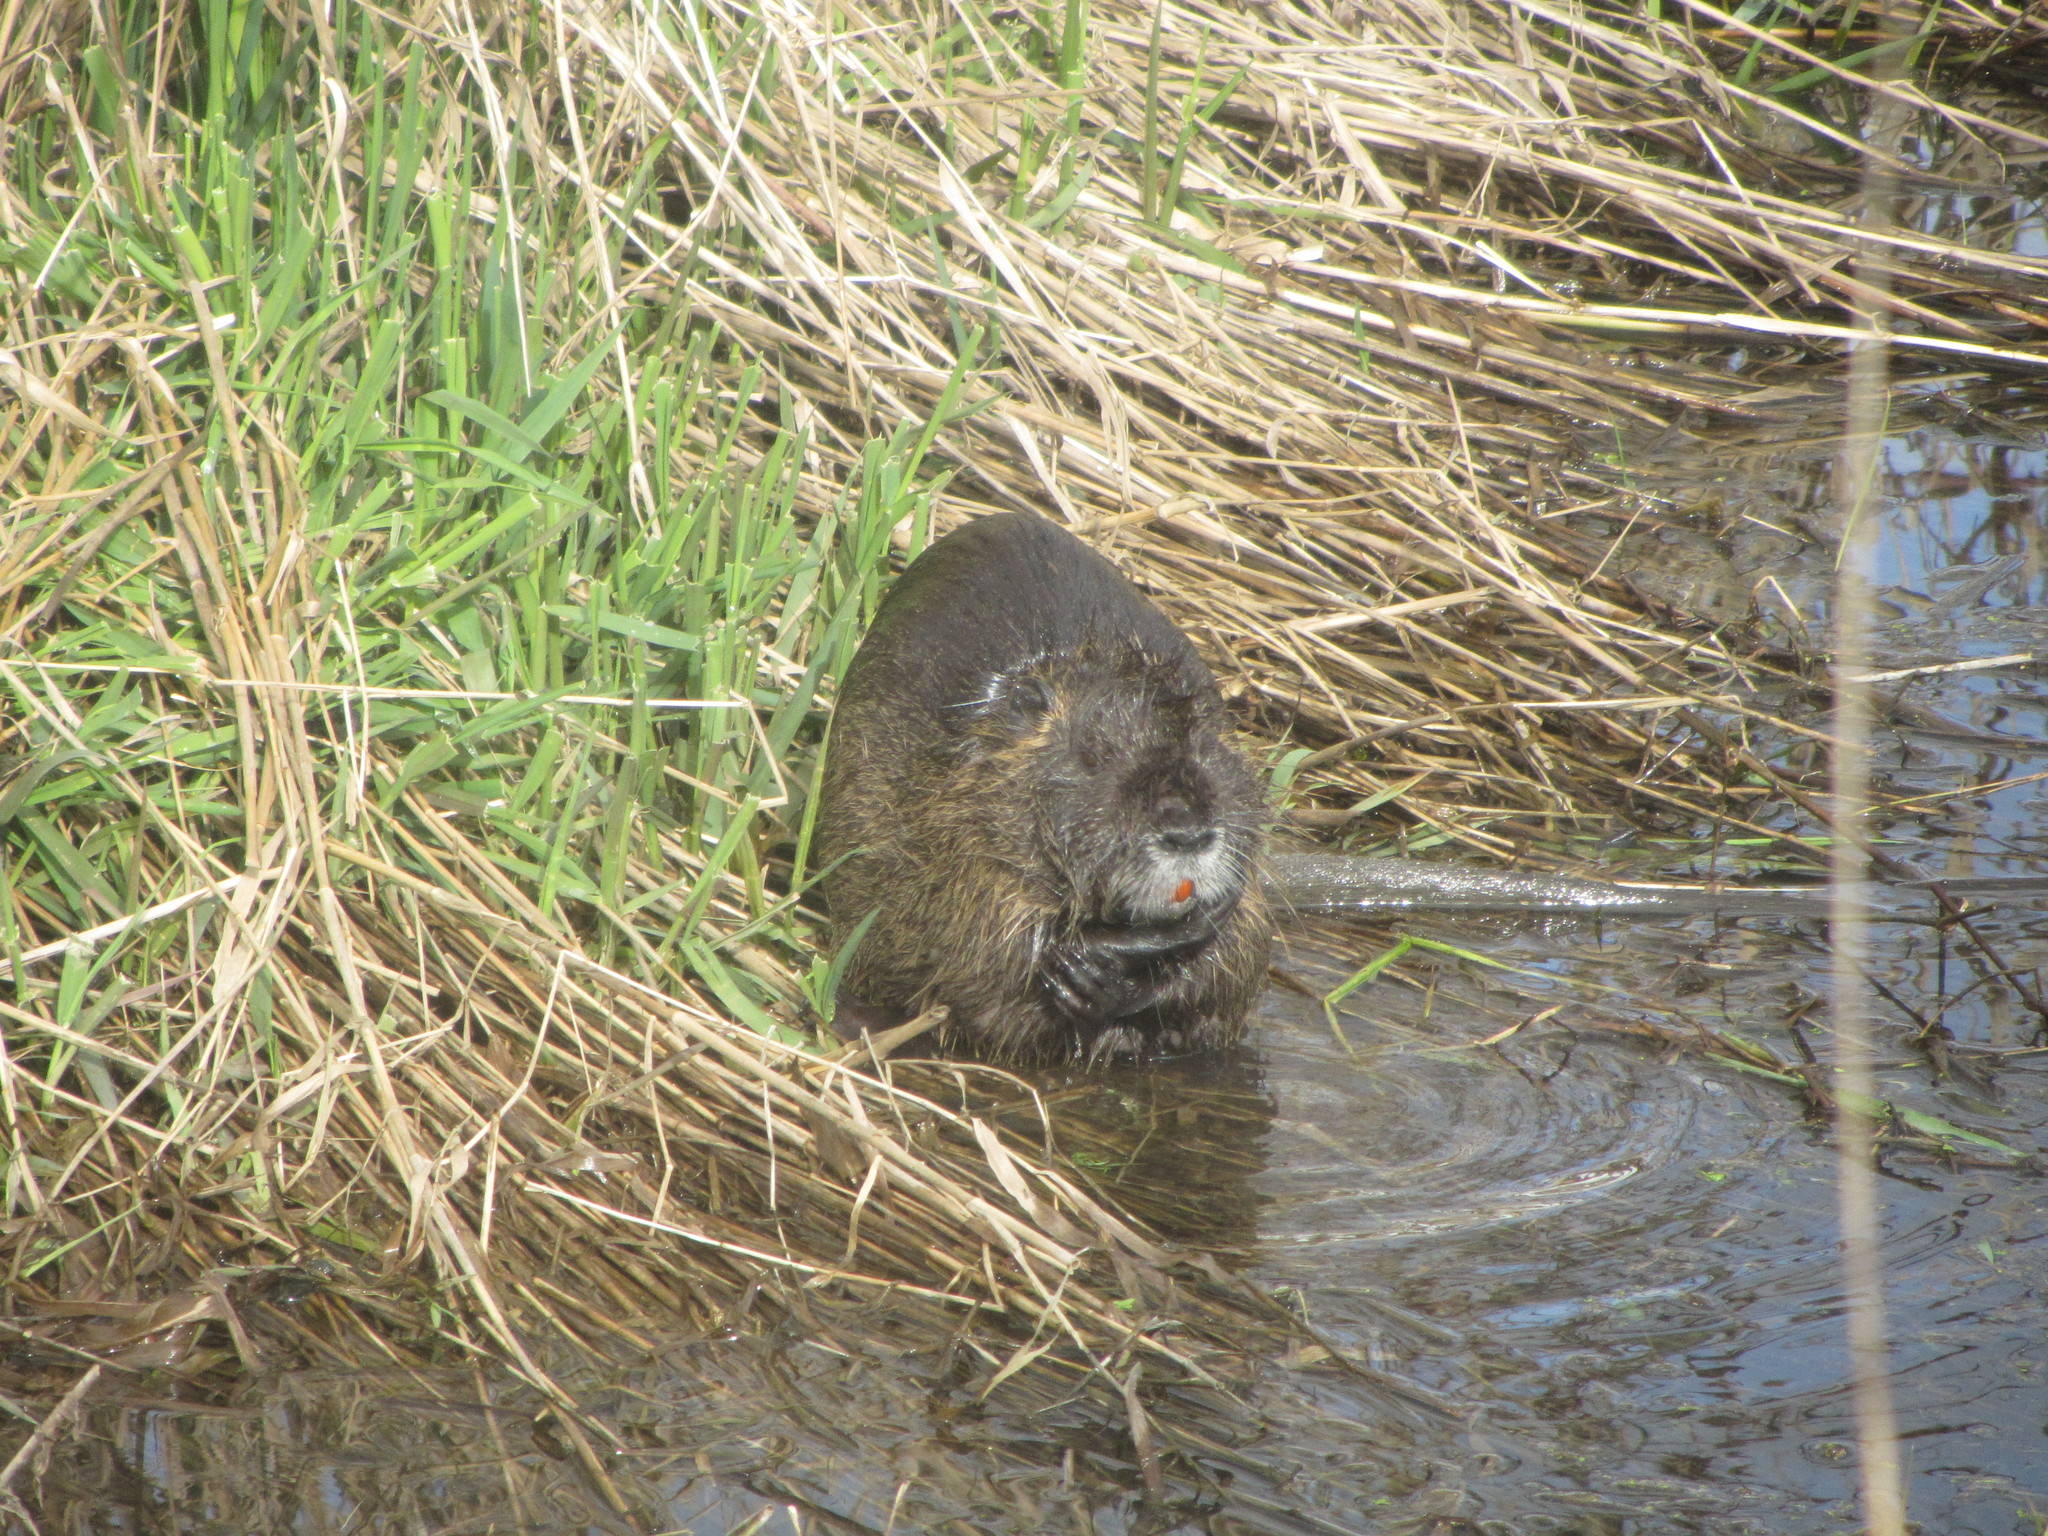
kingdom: Animalia
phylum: Chordata
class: Mammalia
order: Rodentia
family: Myocastoridae
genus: Myocastor
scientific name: Myocastor coypus
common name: Coypu
